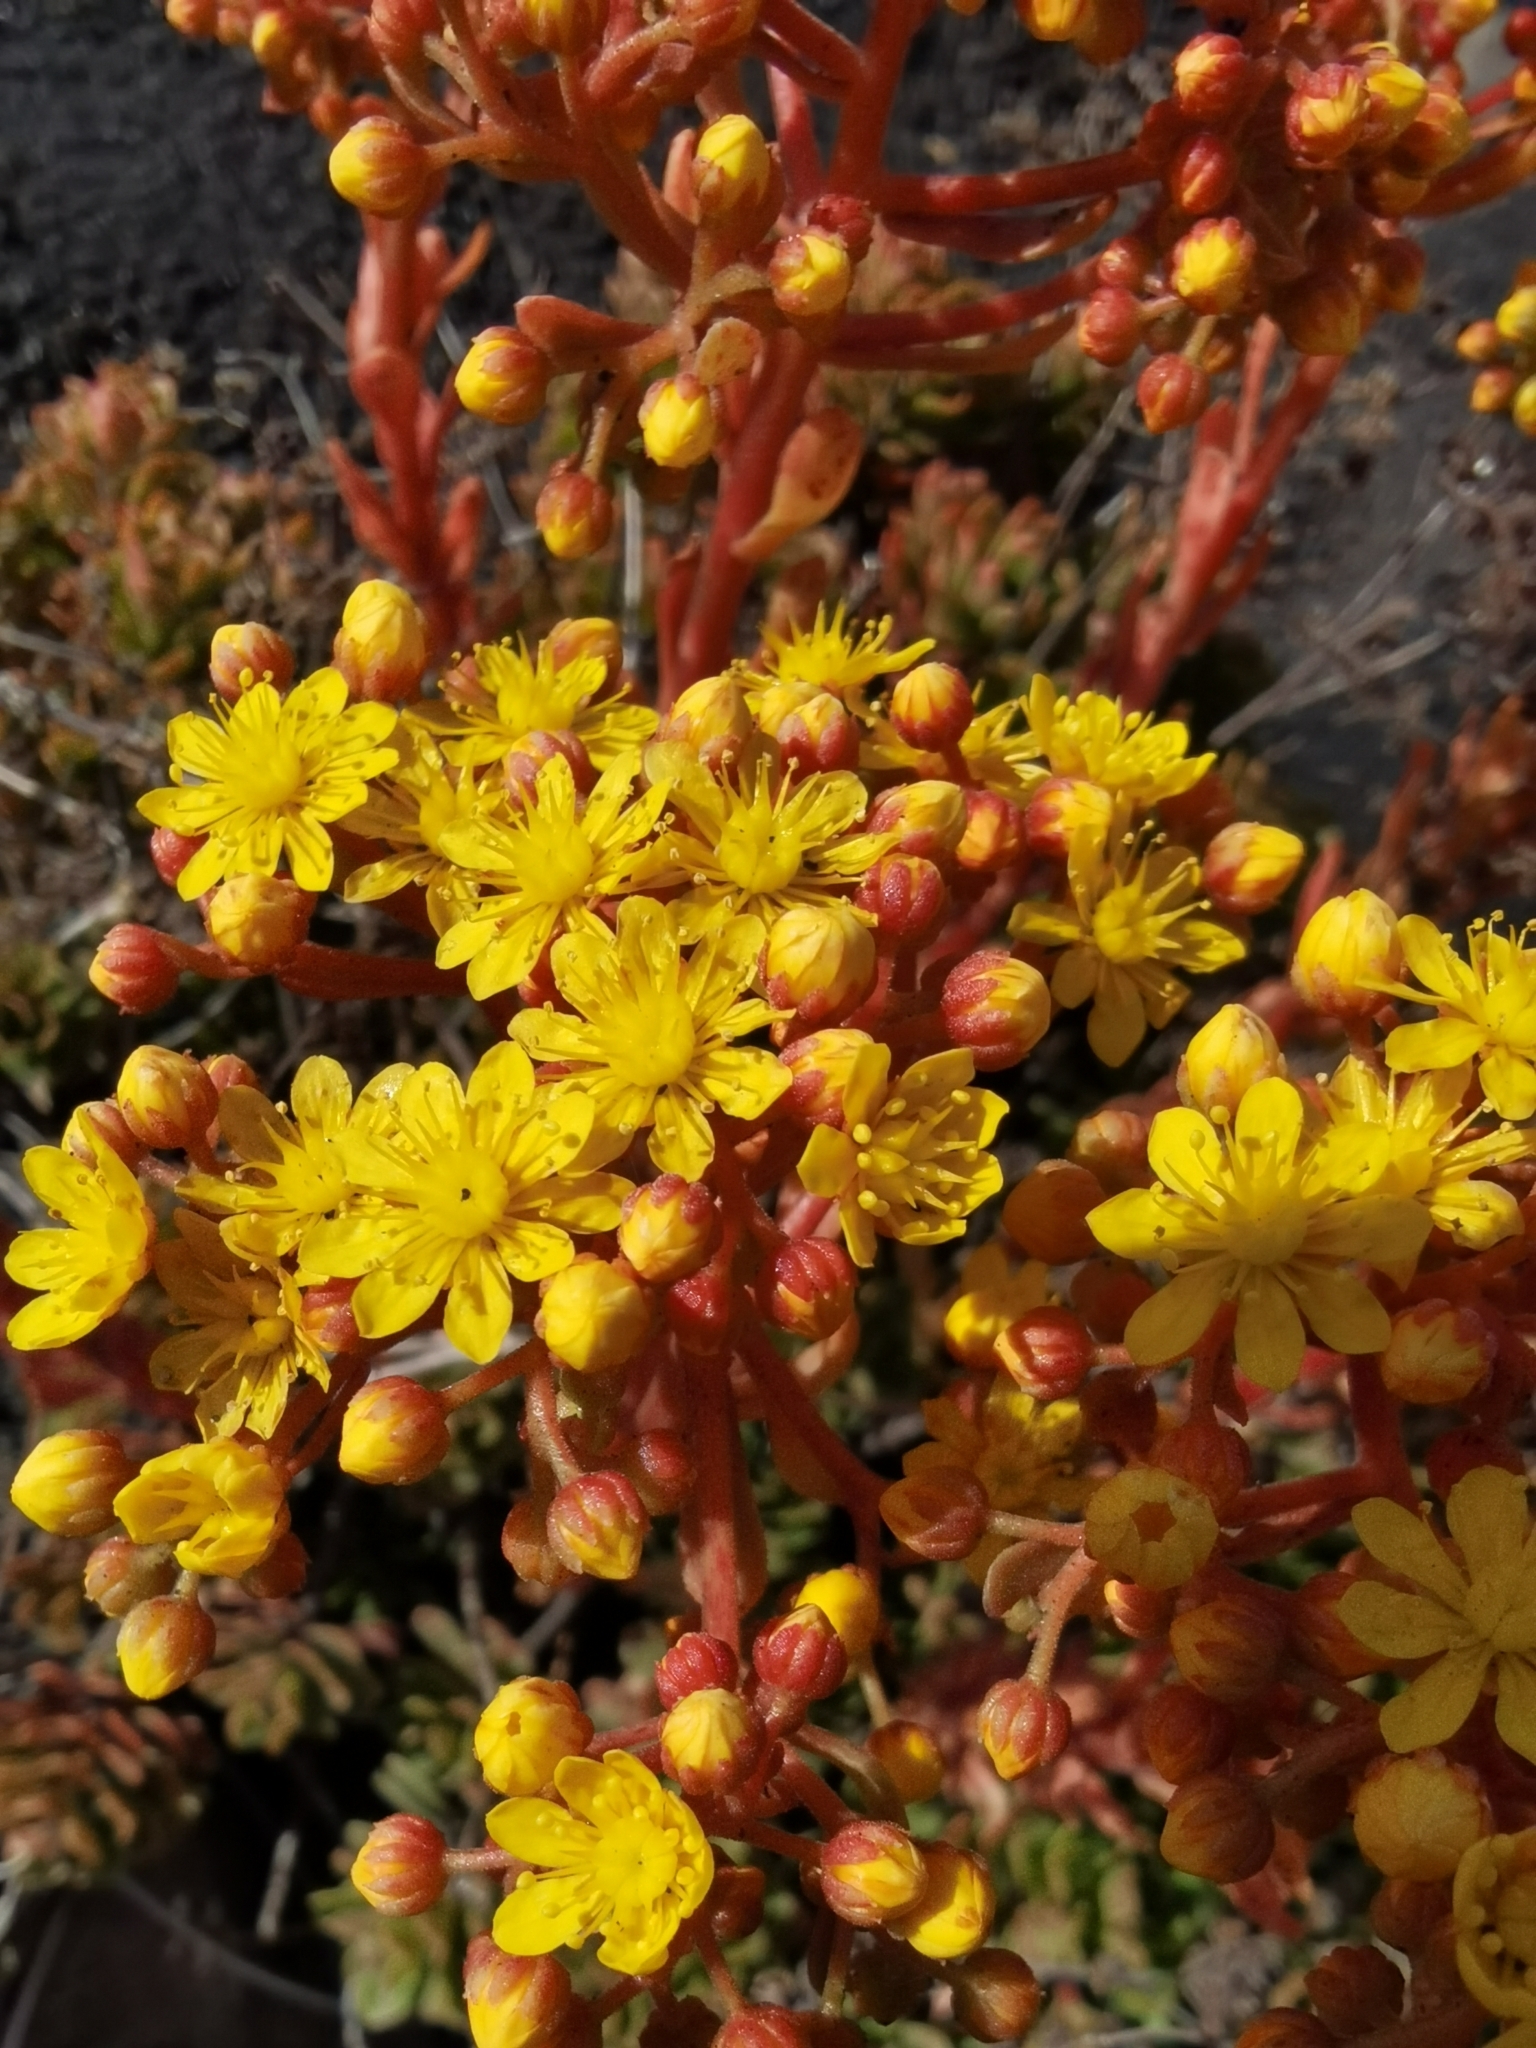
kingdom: Plantae
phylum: Tracheophyta
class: Magnoliopsida
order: Saxifragales
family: Crassulaceae
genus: Aeonium
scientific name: Aeonium spathulatum
